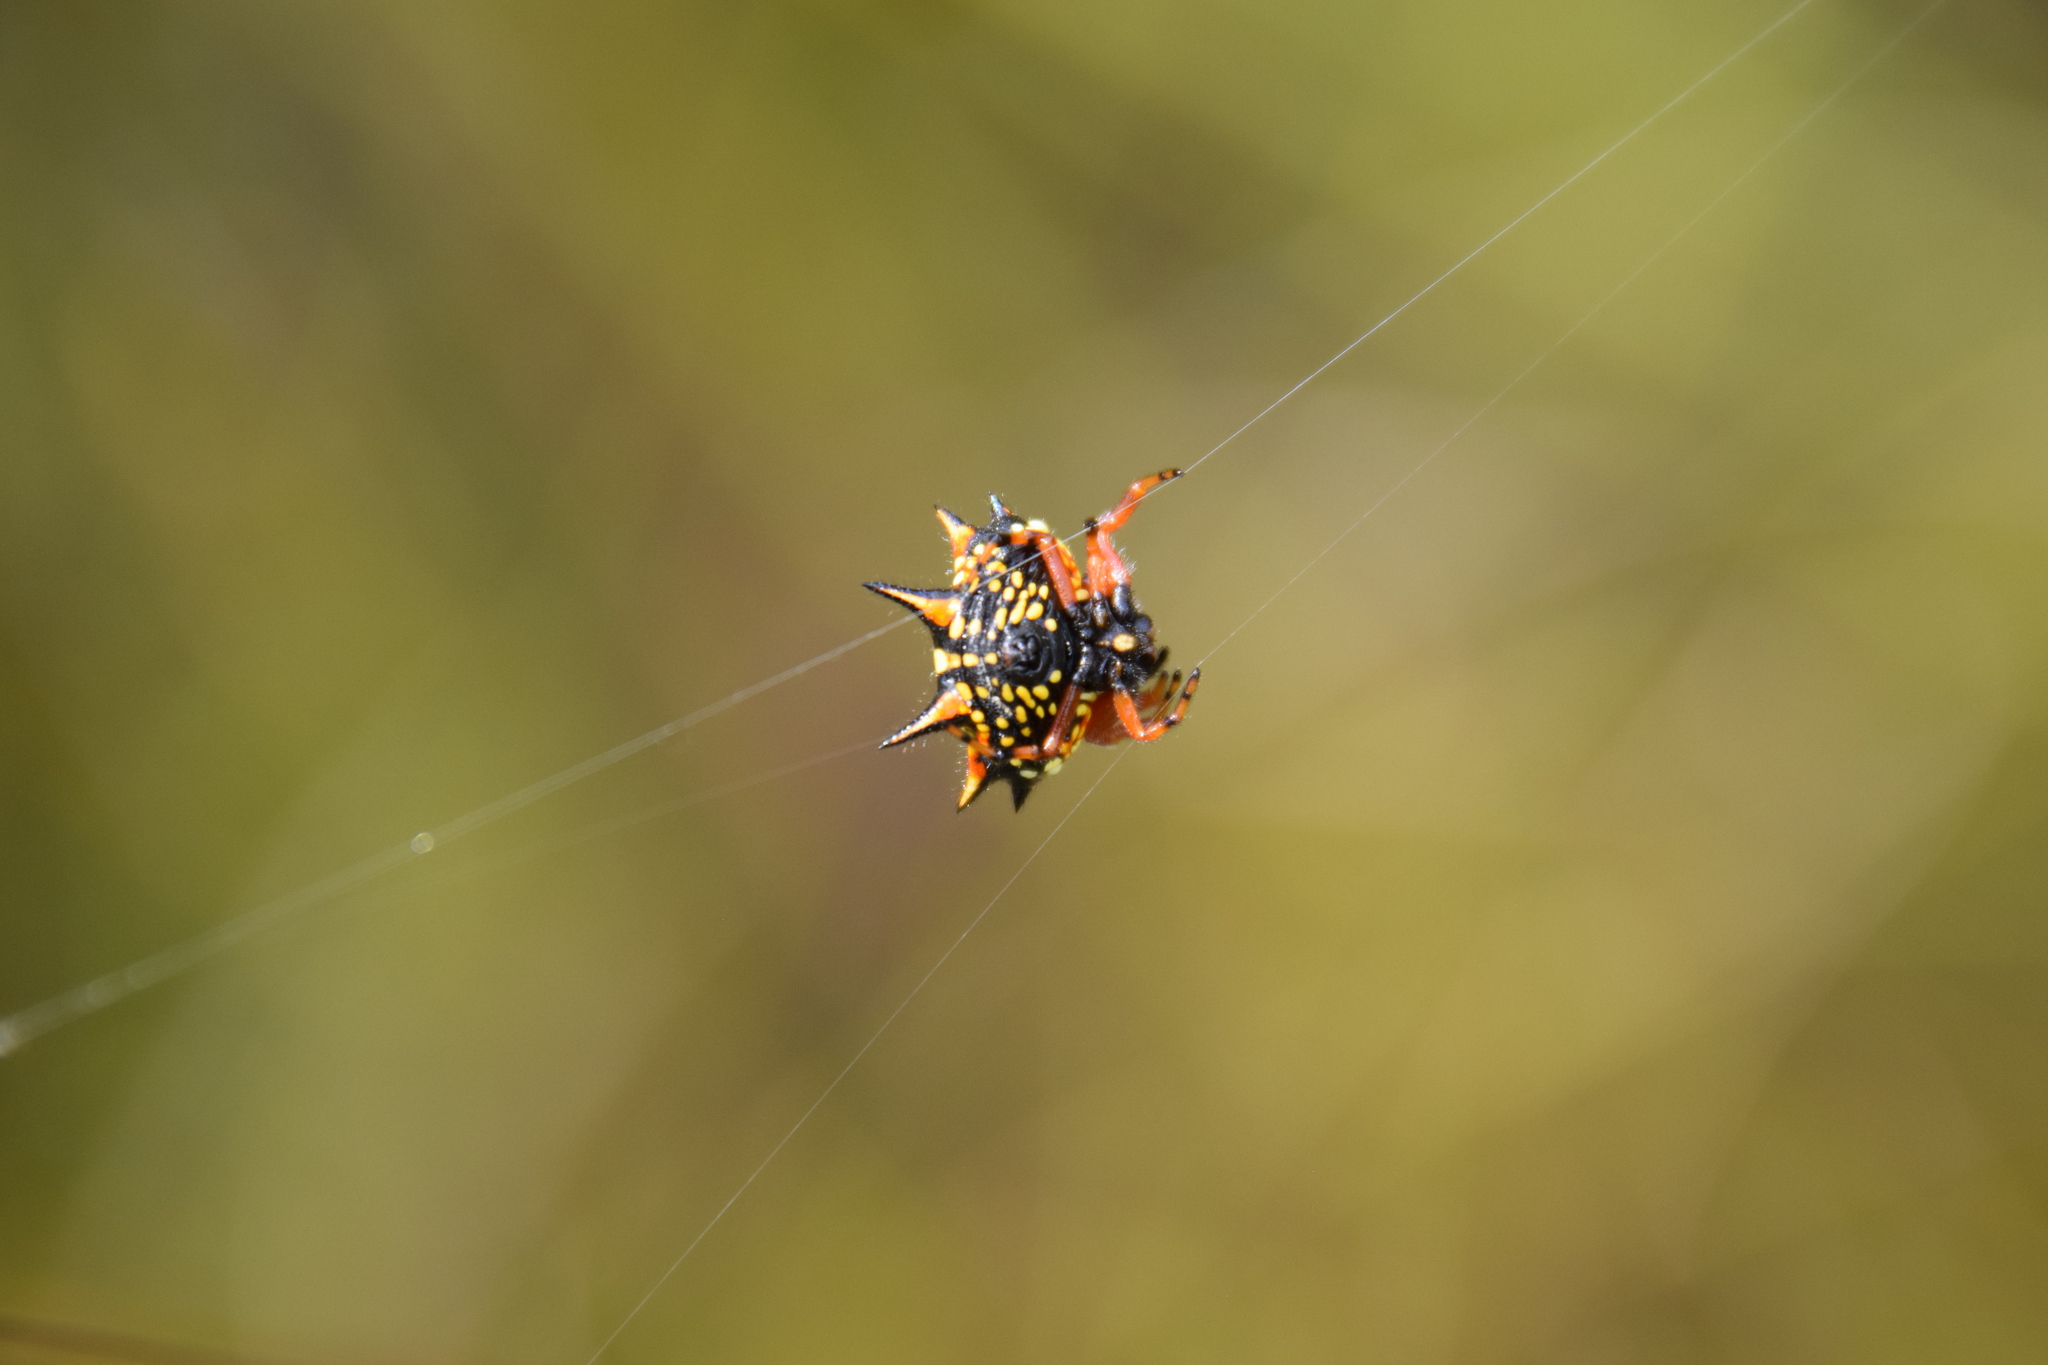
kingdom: Animalia
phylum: Arthropoda
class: Arachnida
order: Araneae
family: Araneidae
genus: Austracantha
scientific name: Austracantha minax
